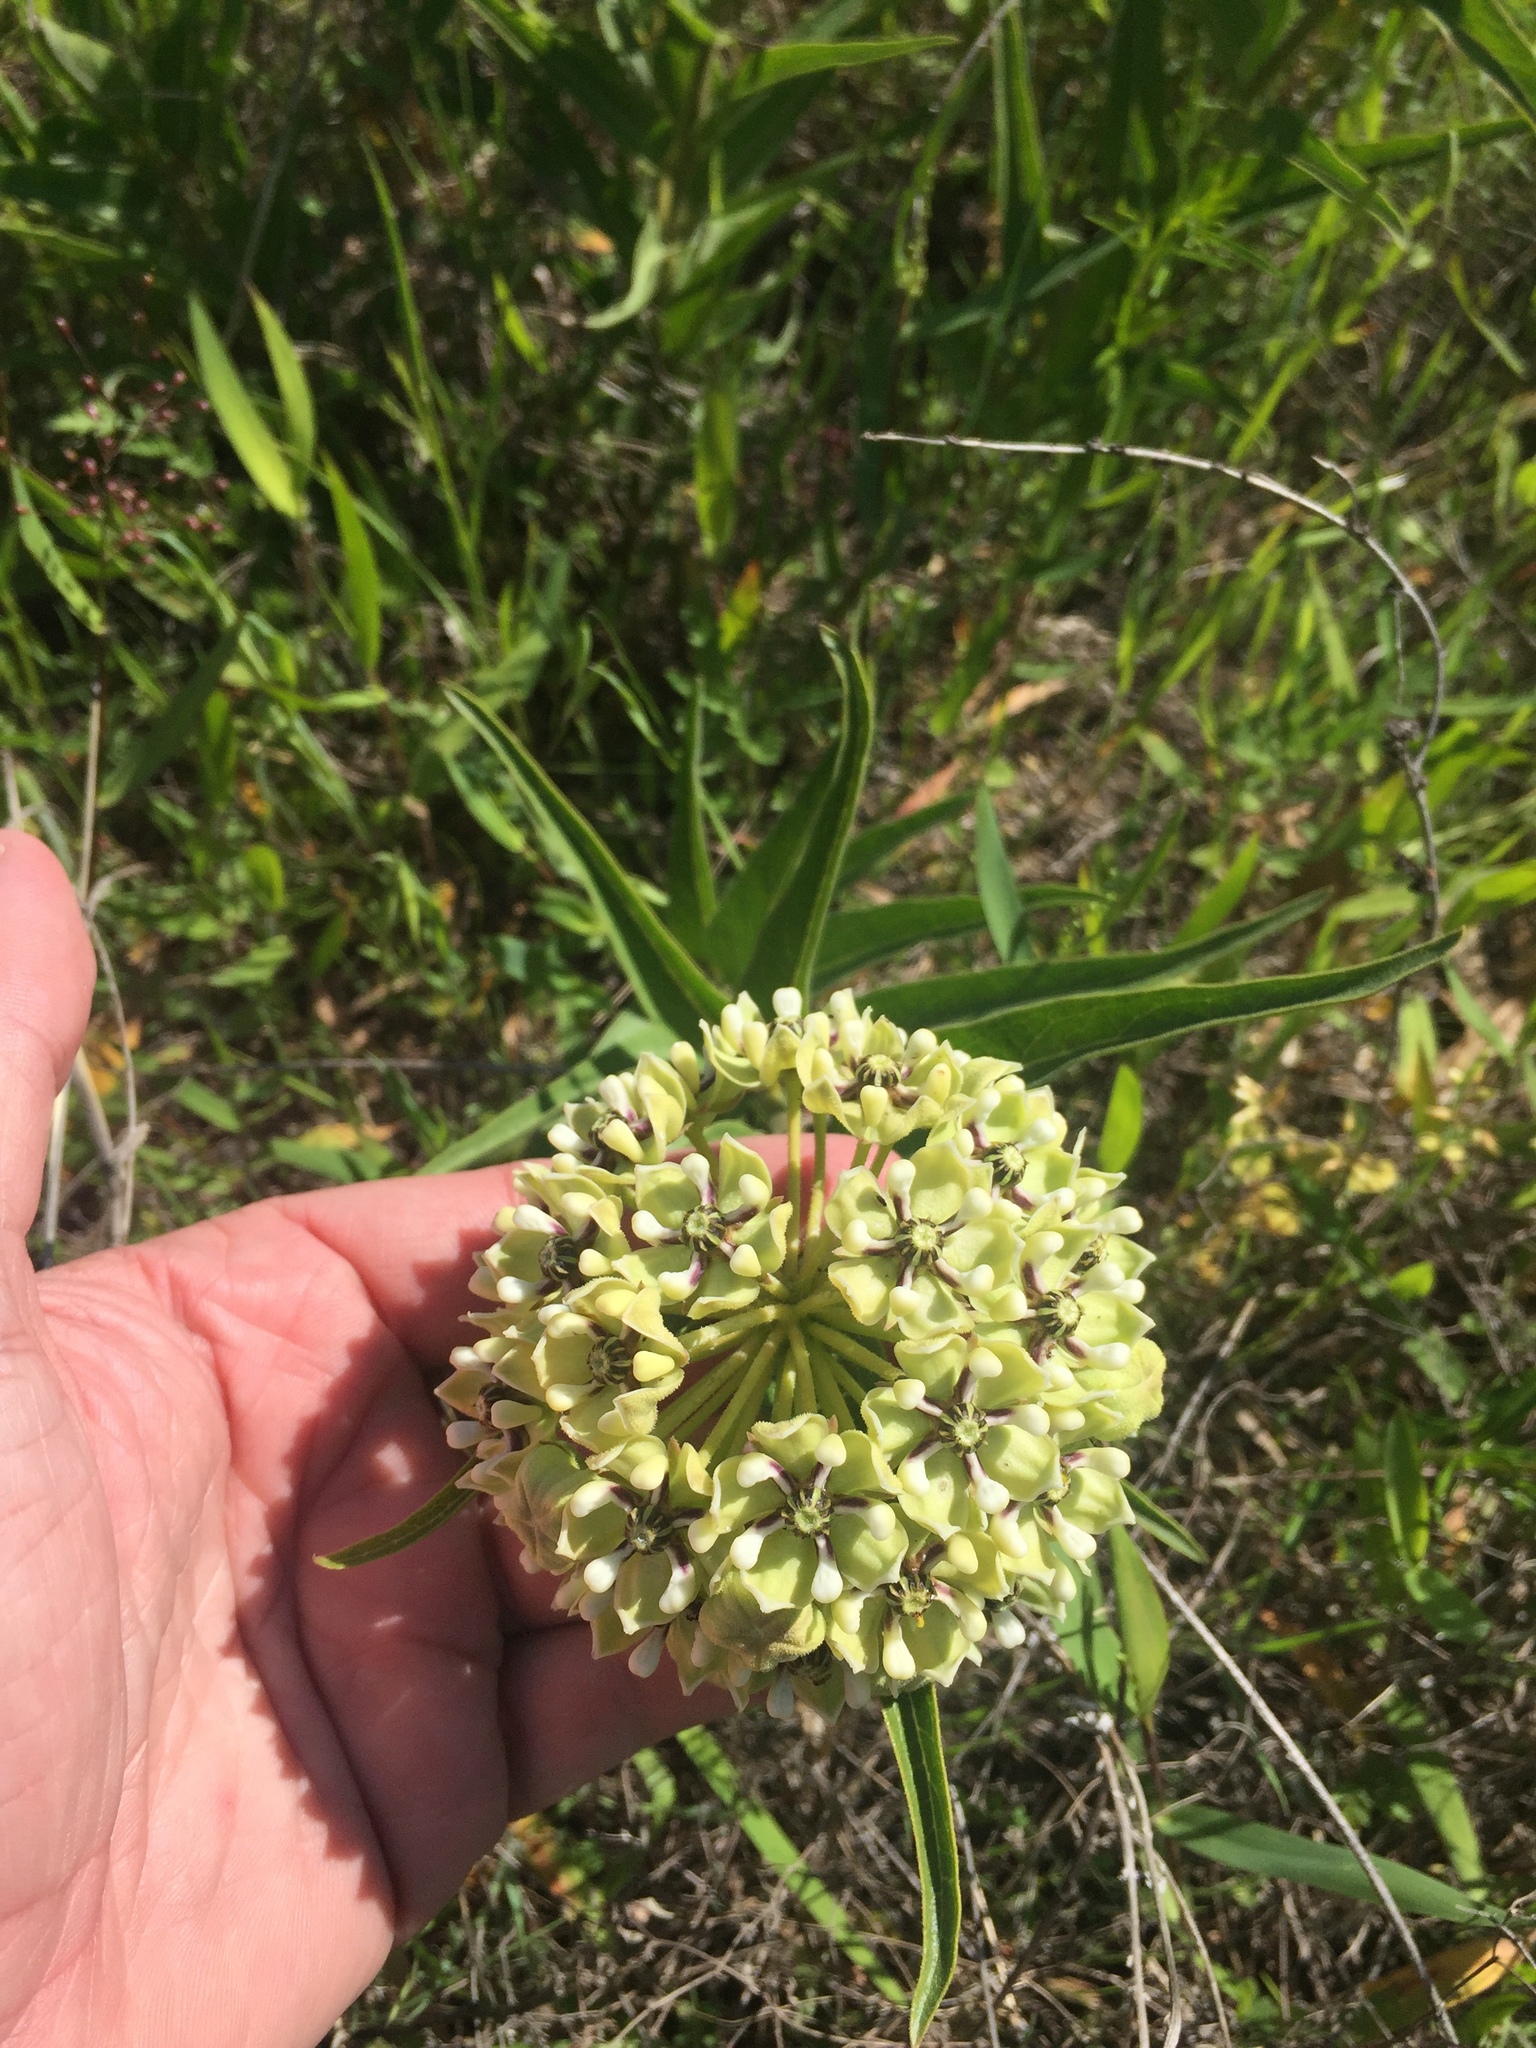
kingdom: Plantae
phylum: Tracheophyta
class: Magnoliopsida
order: Gentianales
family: Apocynaceae
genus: Asclepias
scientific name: Asclepias asperula
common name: Antelope horns
